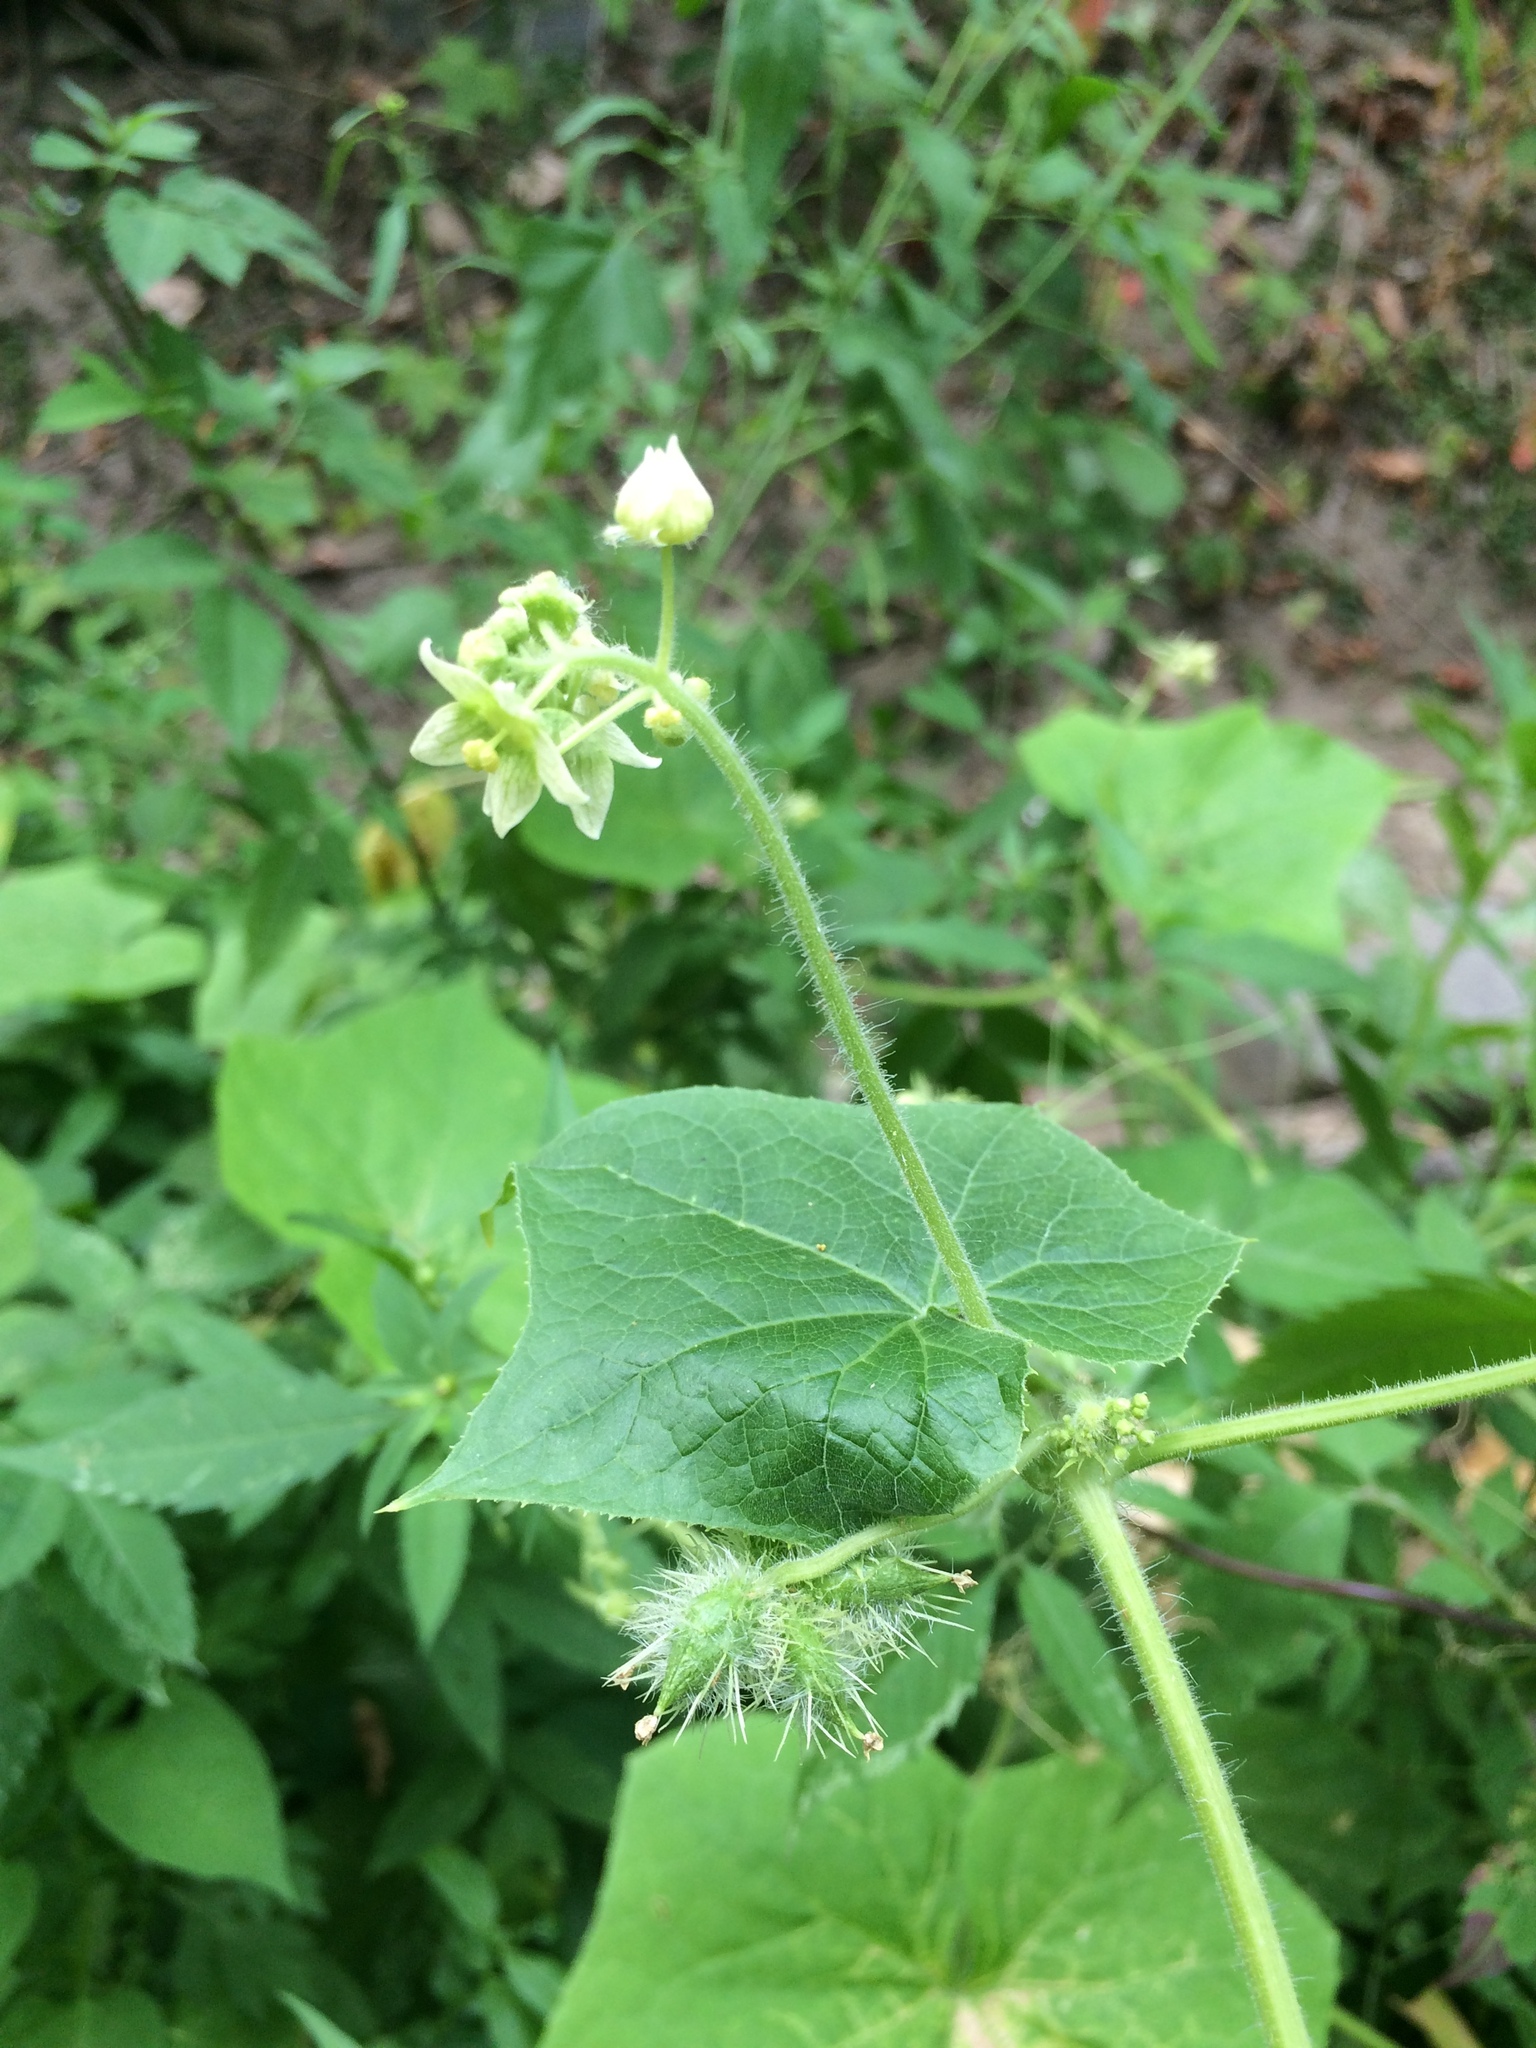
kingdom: Plantae
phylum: Tracheophyta
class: Magnoliopsida
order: Cucurbitales
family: Cucurbitaceae
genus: Sicyos
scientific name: Sicyos angulatus
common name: Angled burr cucumber
